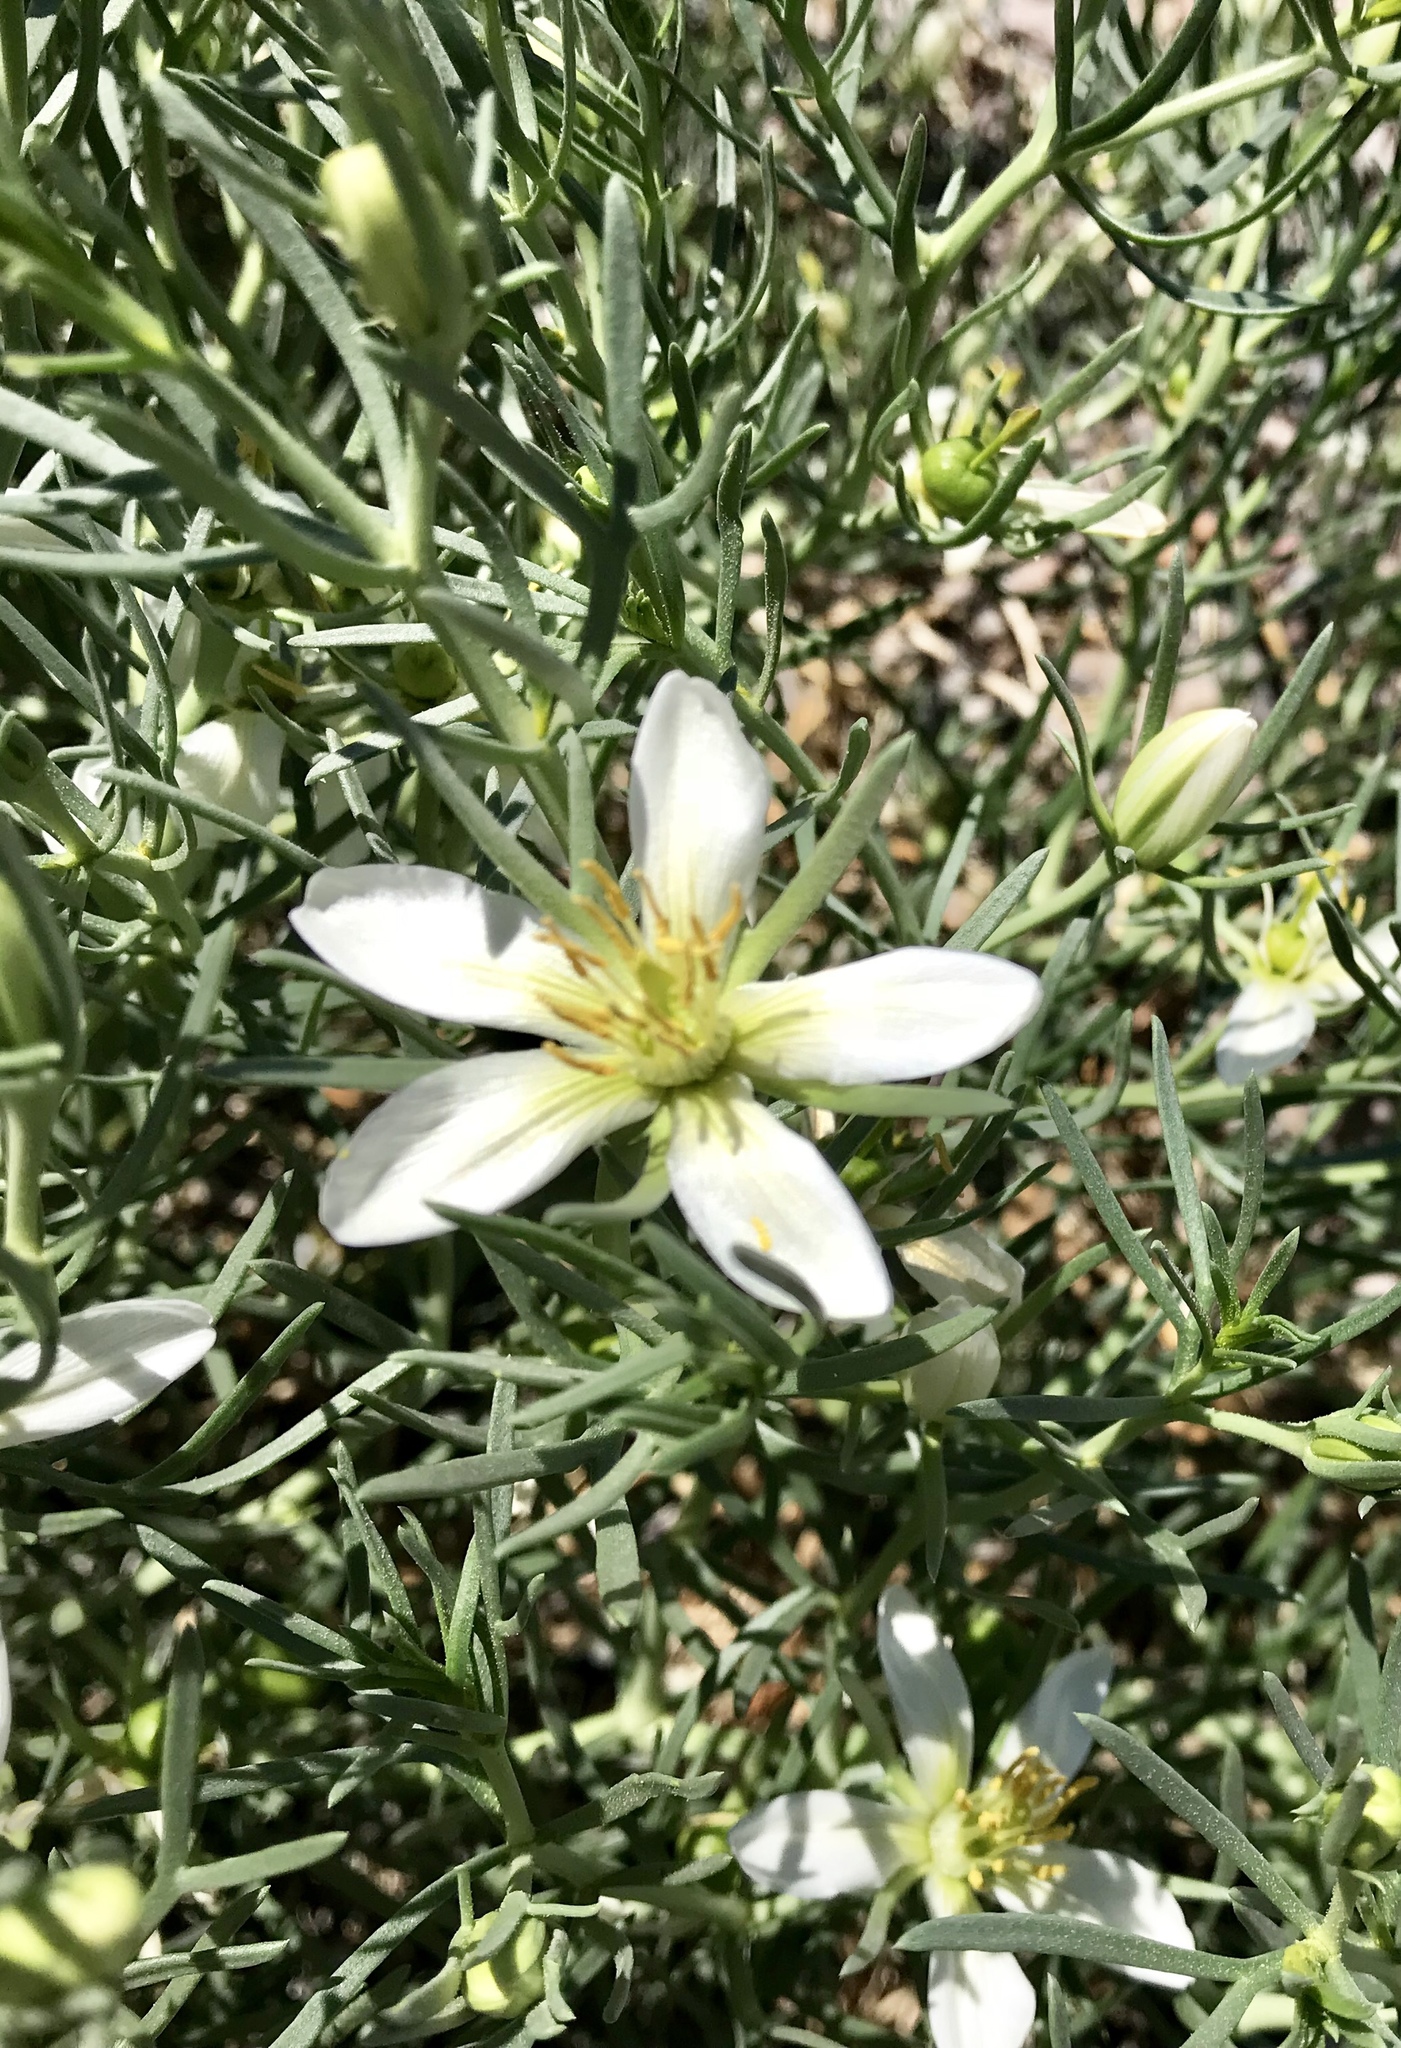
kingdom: Plantae
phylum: Tracheophyta
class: Magnoliopsida
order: Sapindales
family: Tetradiclidaceae
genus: Peganum
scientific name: Peganum harmala
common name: Harmal peganum
